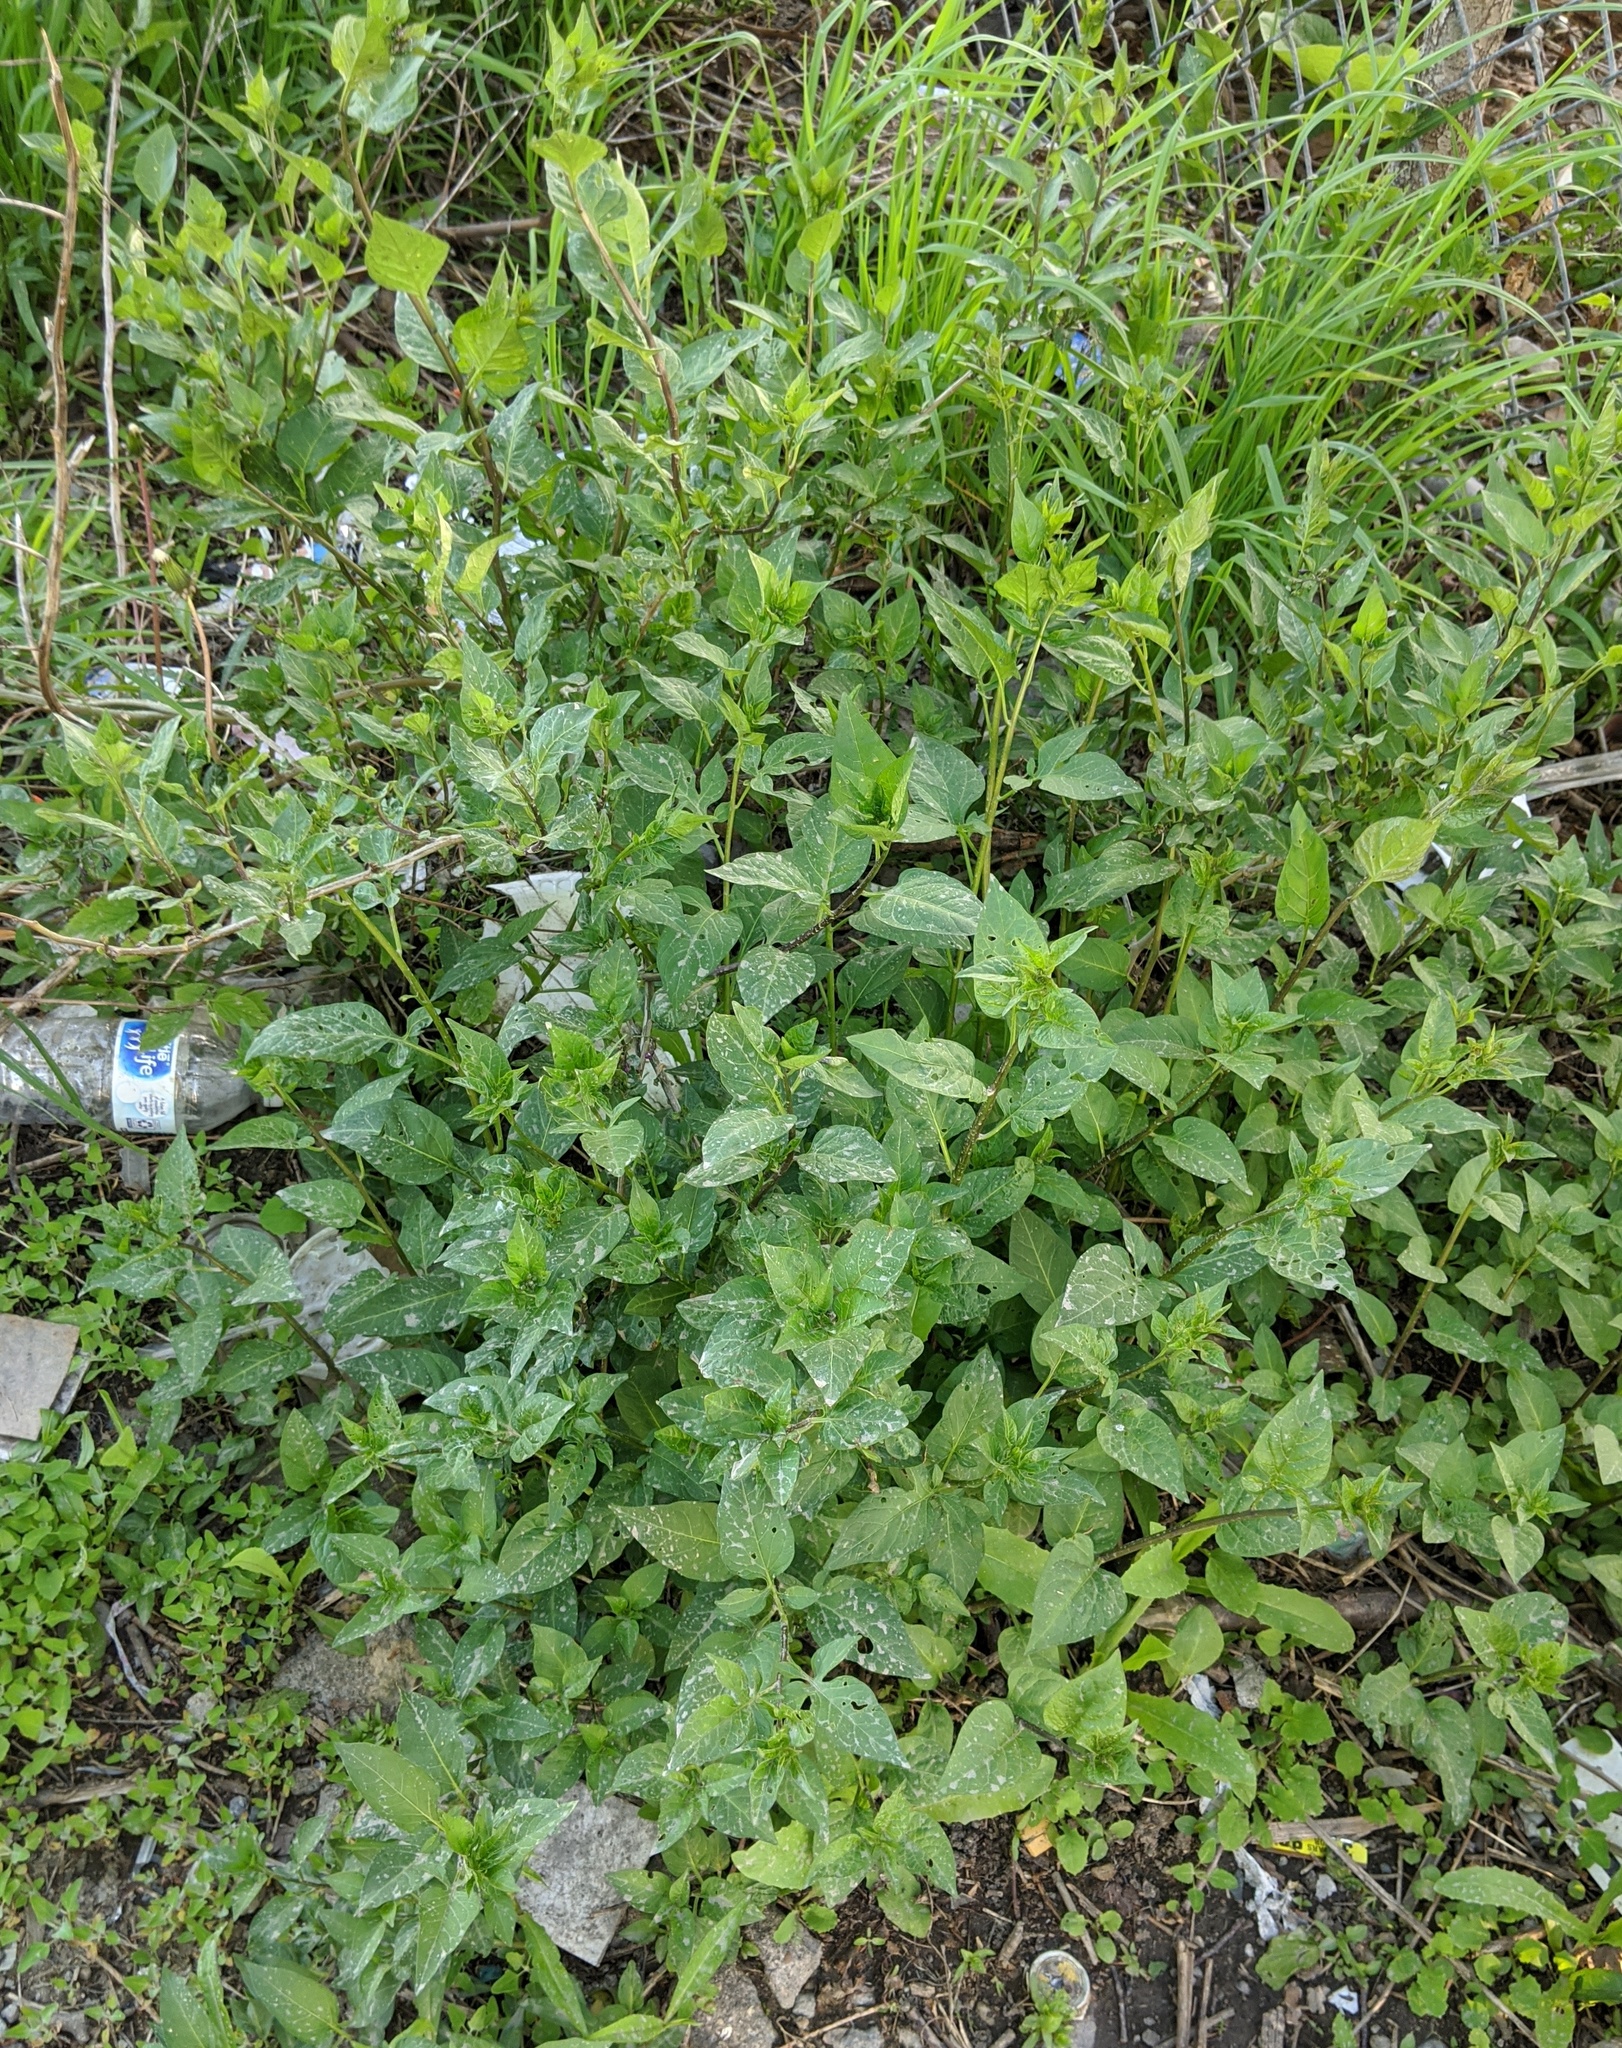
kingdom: Plantae
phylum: Tracheophyta
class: Magnoliopsida
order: Solanales
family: Solanaceae
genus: Solanum
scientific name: Solanum dulcamara
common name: Climbing nightshade
